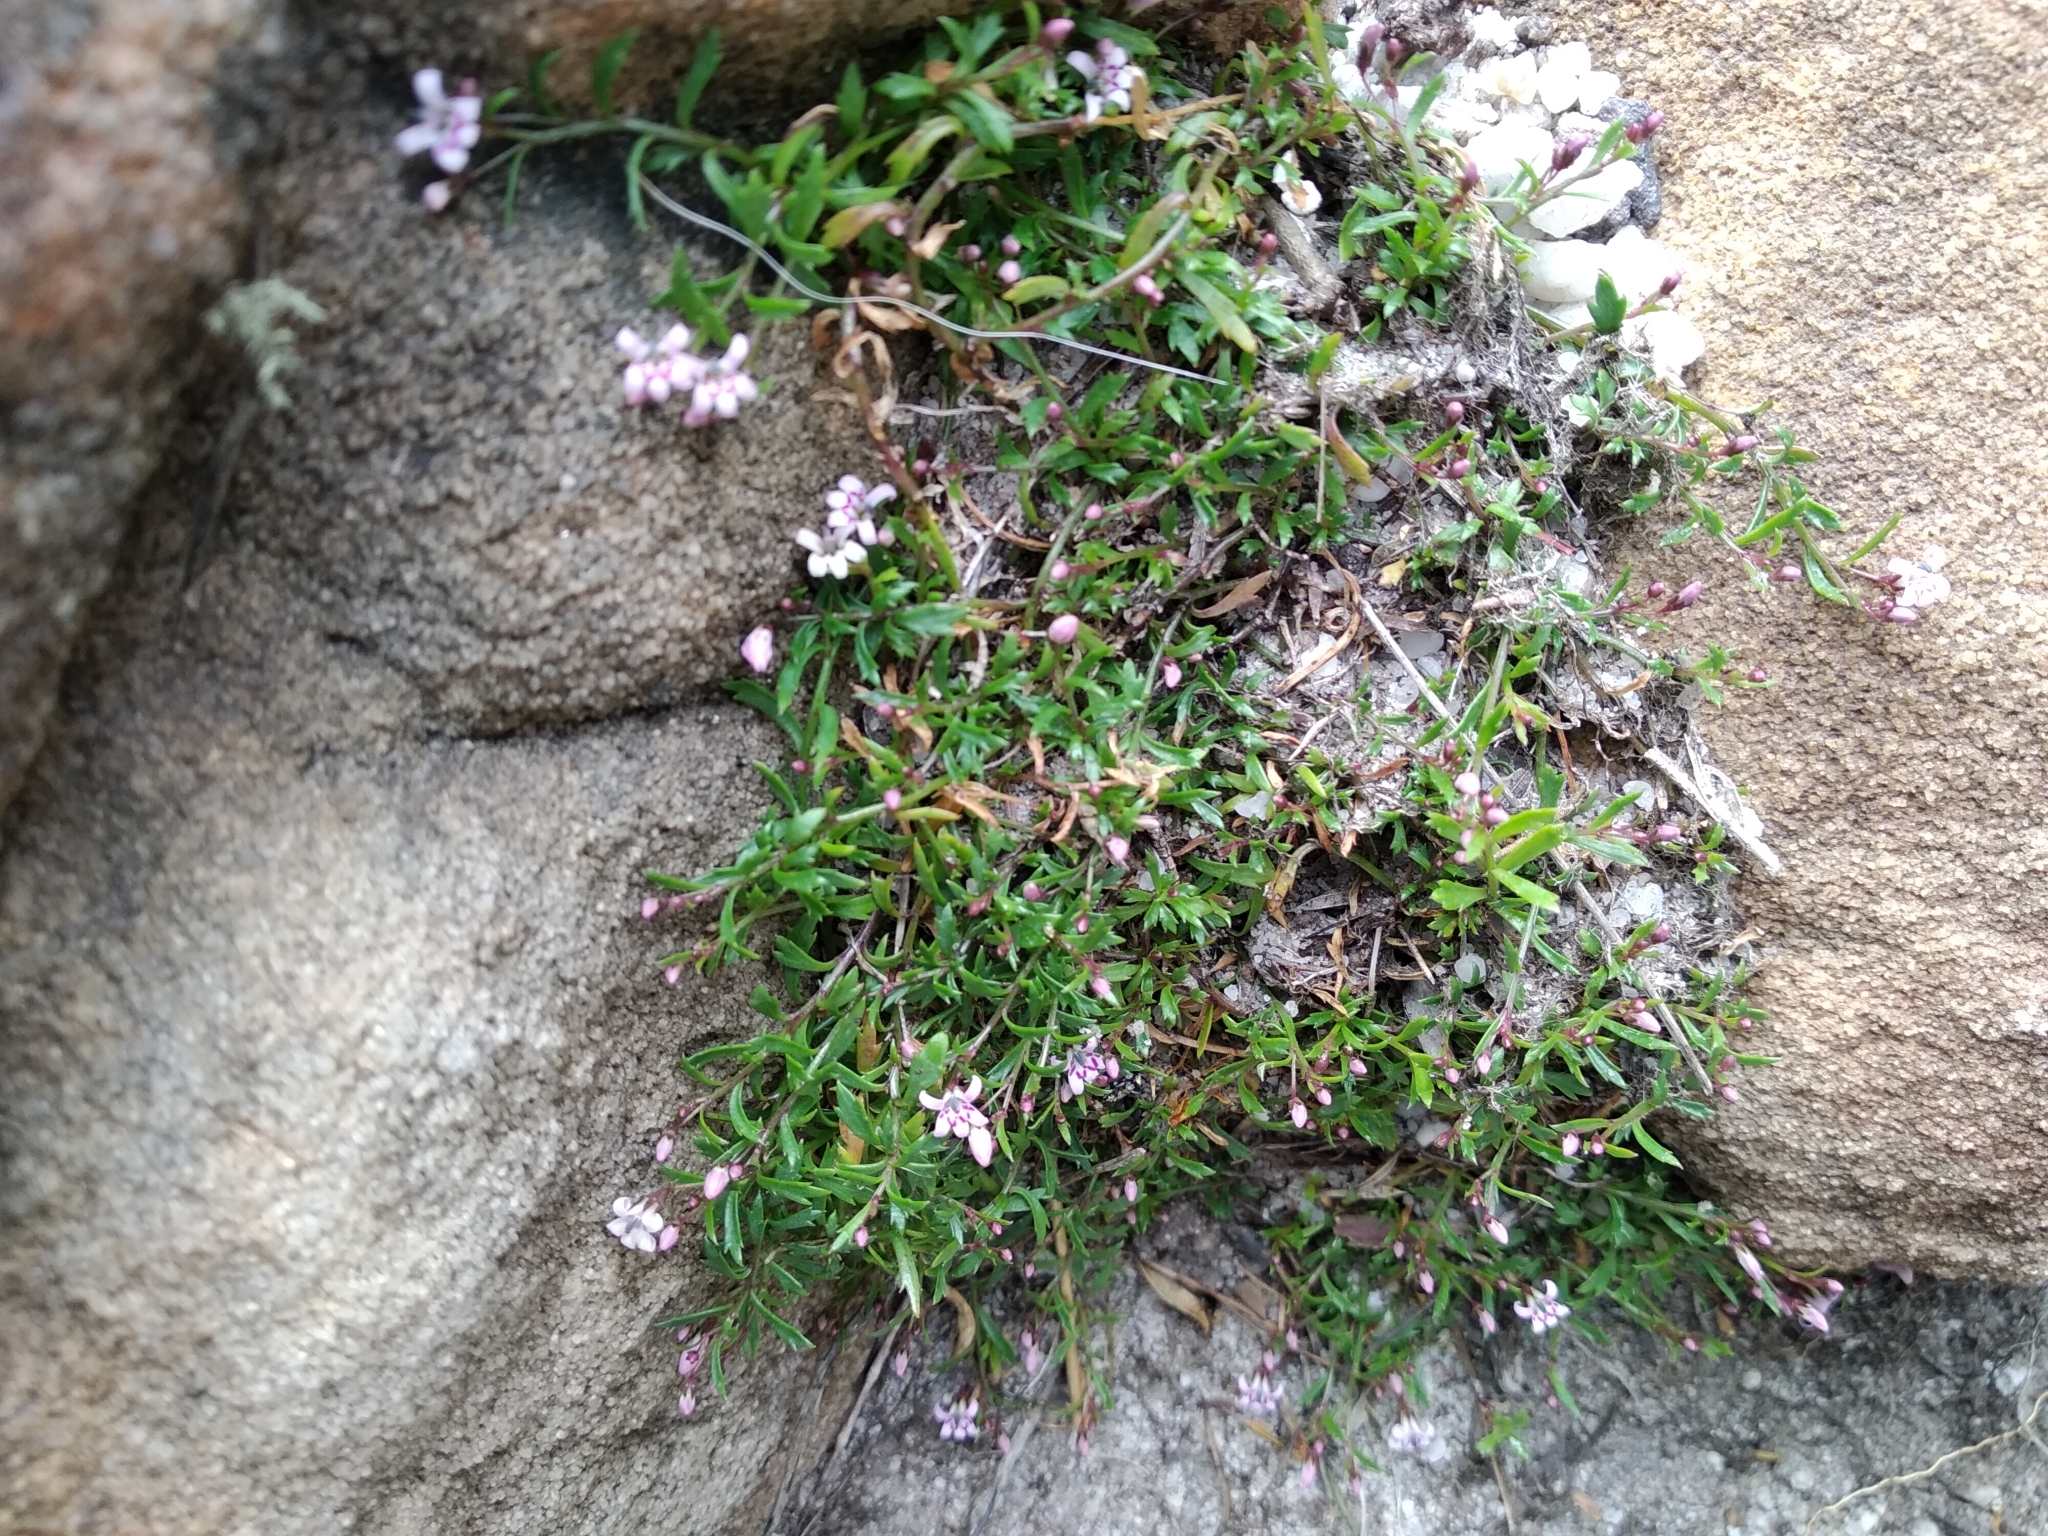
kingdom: Plantae
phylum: Tracheophyta
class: Magnoliopsida
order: Asterales
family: Campanulaceae
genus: Lobelia
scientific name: Lobelia eckloniana
